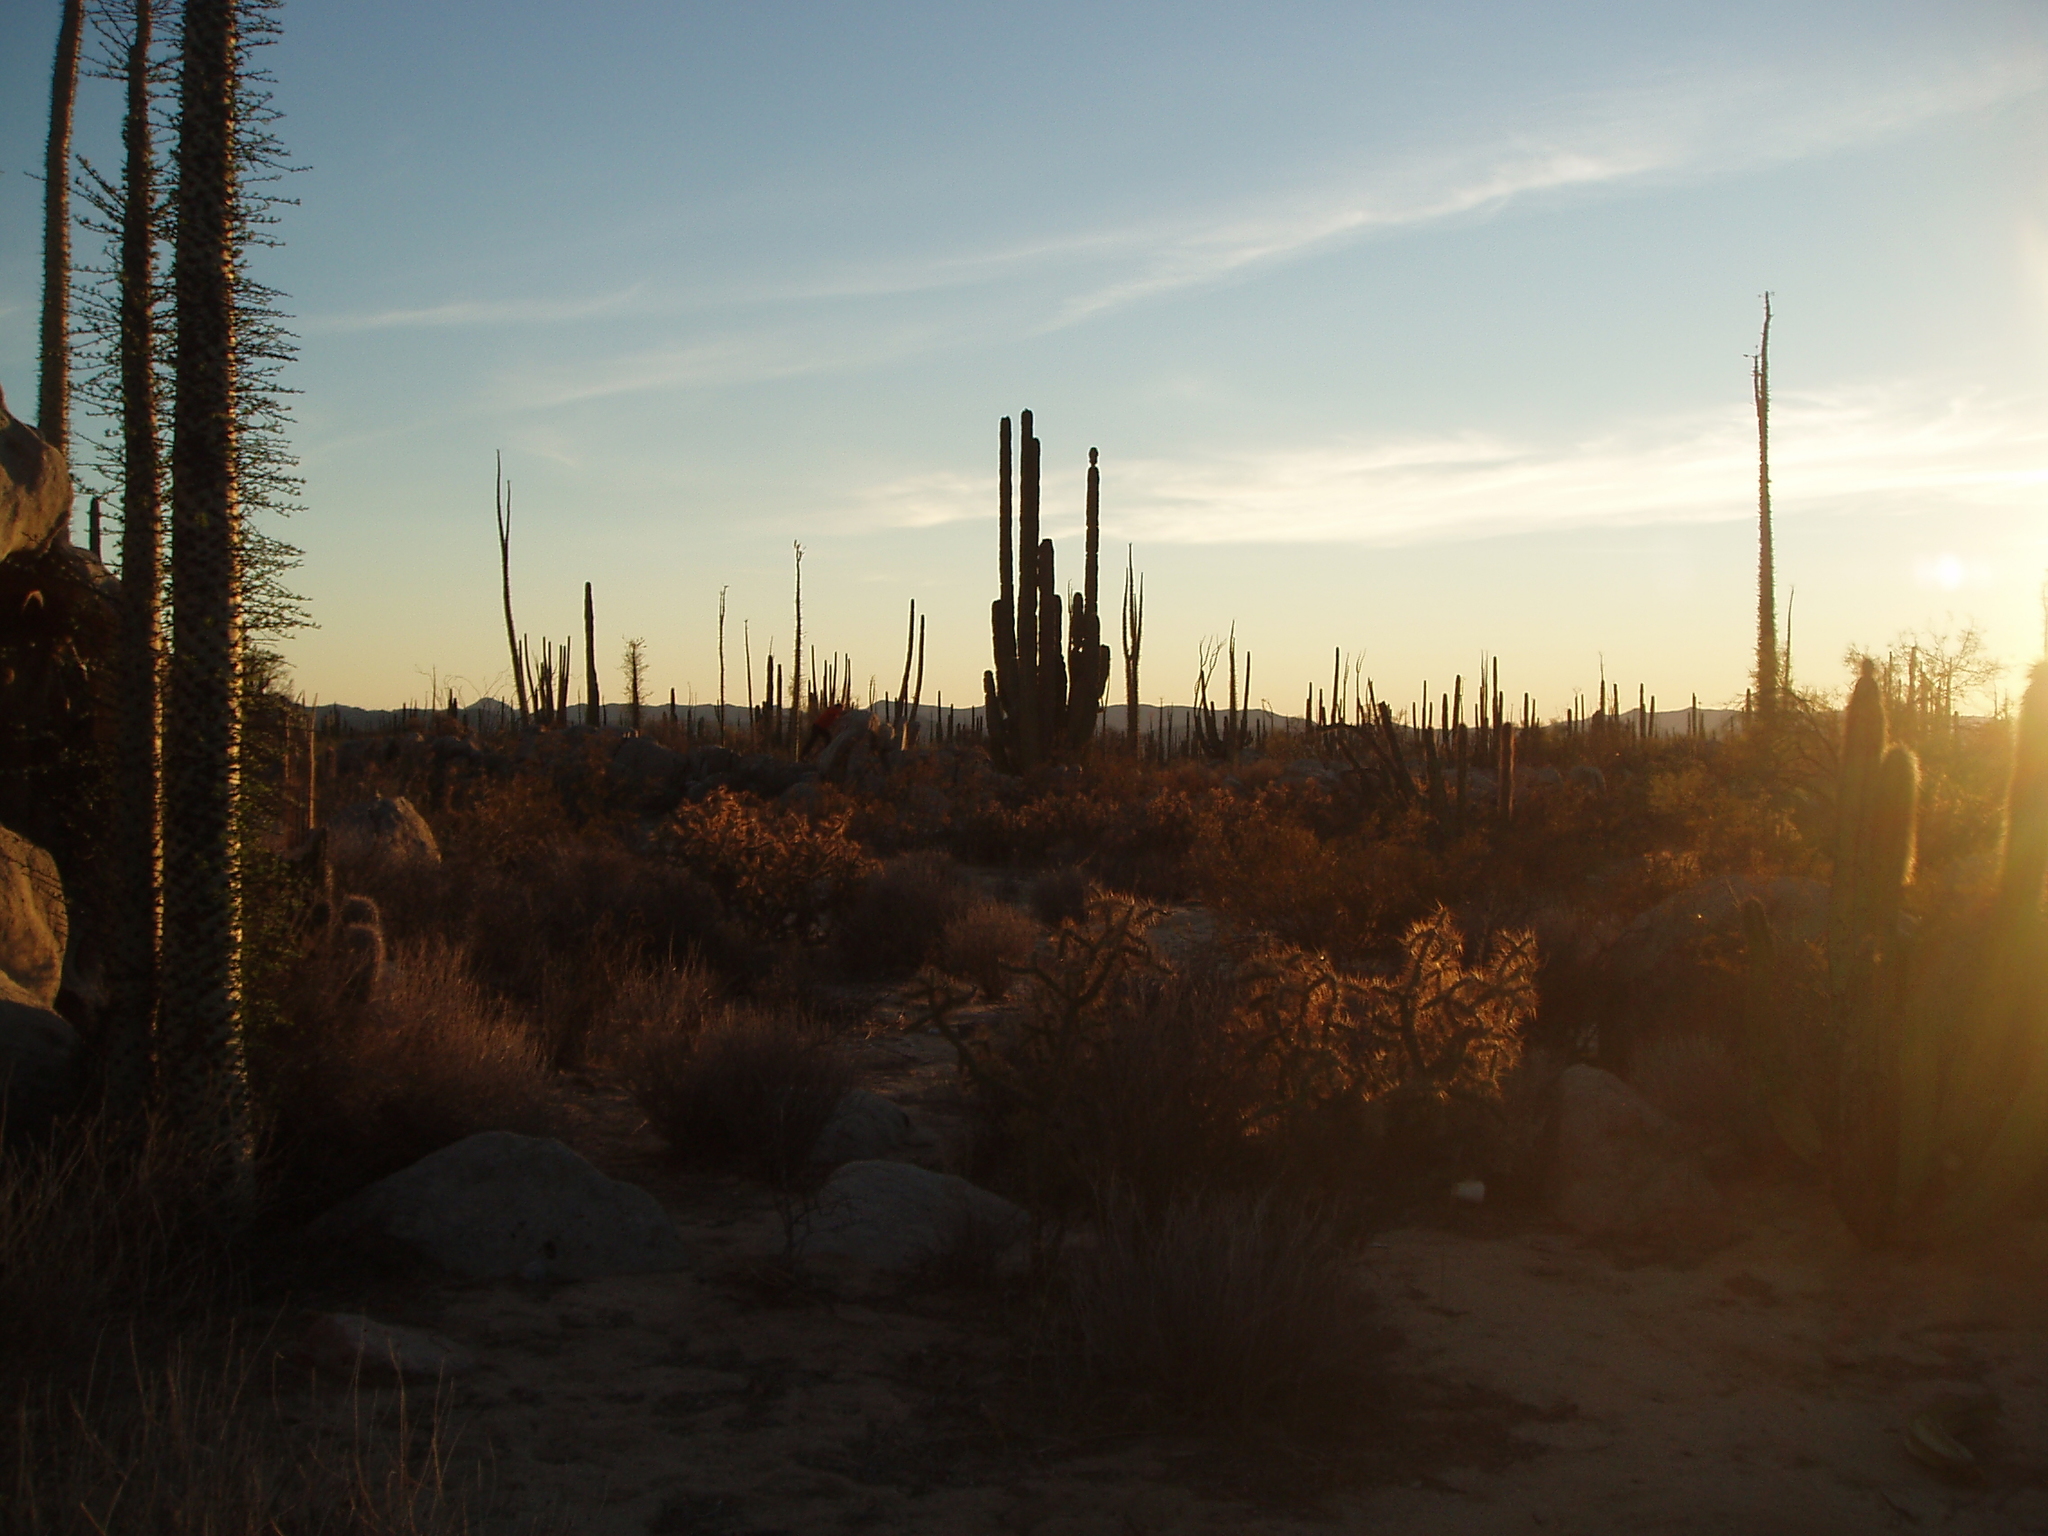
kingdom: Plantae
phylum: Tracheophyta
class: Magnoliopsida
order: Ericales
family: Fouquieriaceae
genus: Fouquieria
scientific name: Fouquieria columnaris
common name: Boojumtree
